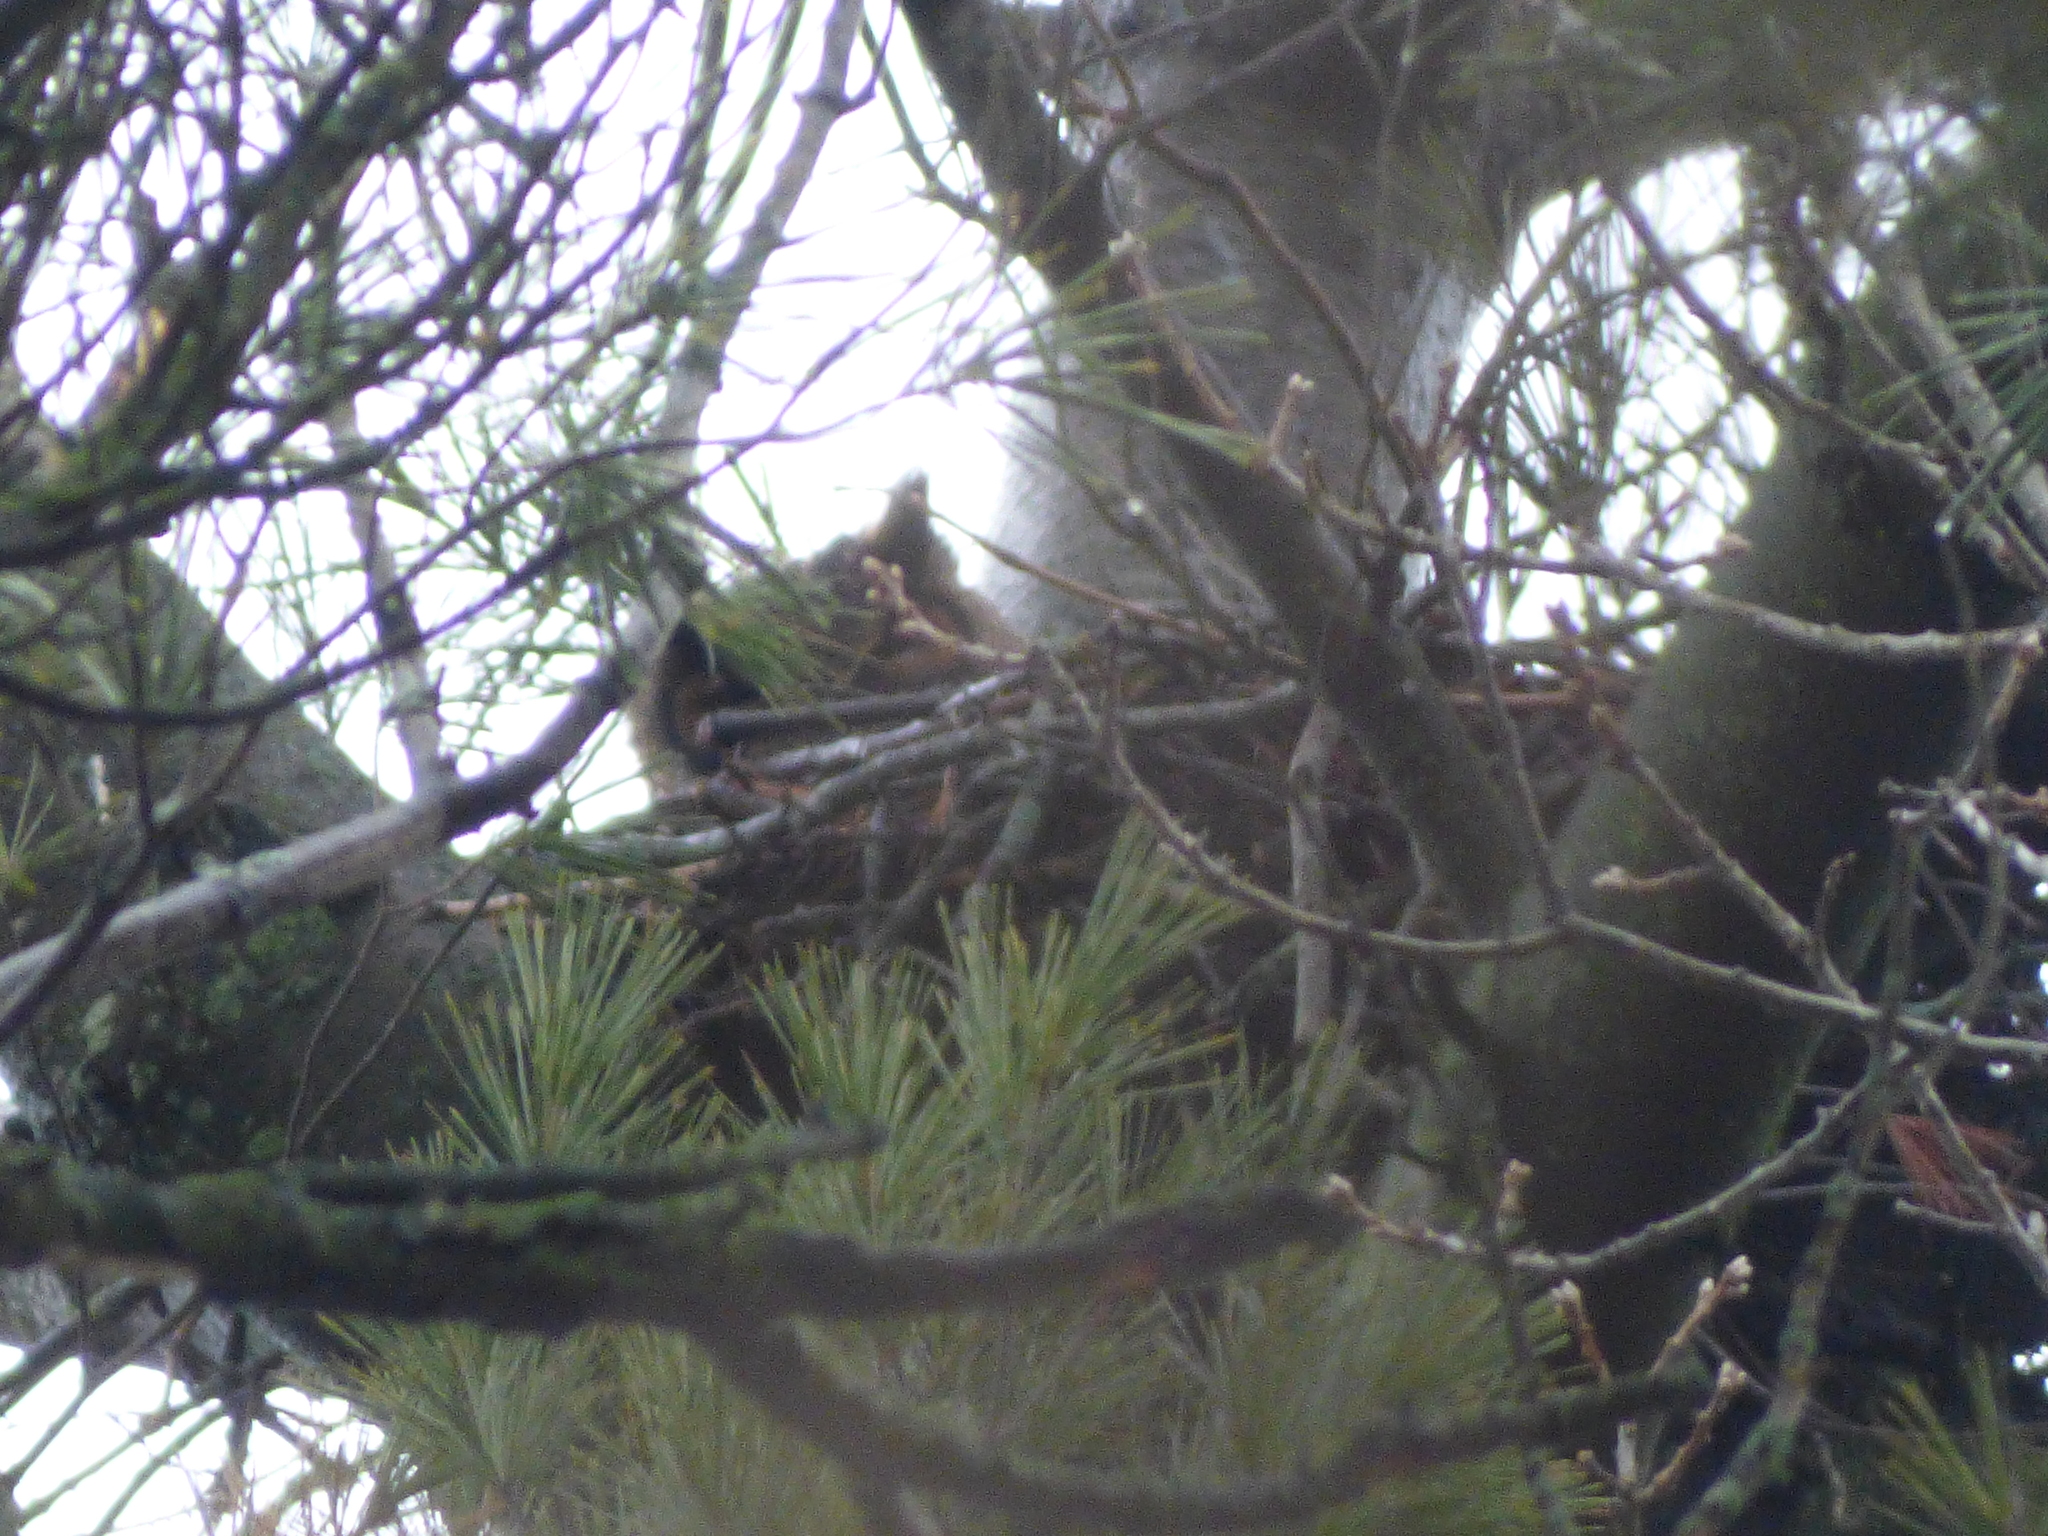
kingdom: Animalia
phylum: Chordata
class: Aves
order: Strigiformes
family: Strigidae
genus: Bubo
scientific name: Bubo virginianus
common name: Great horned owl
